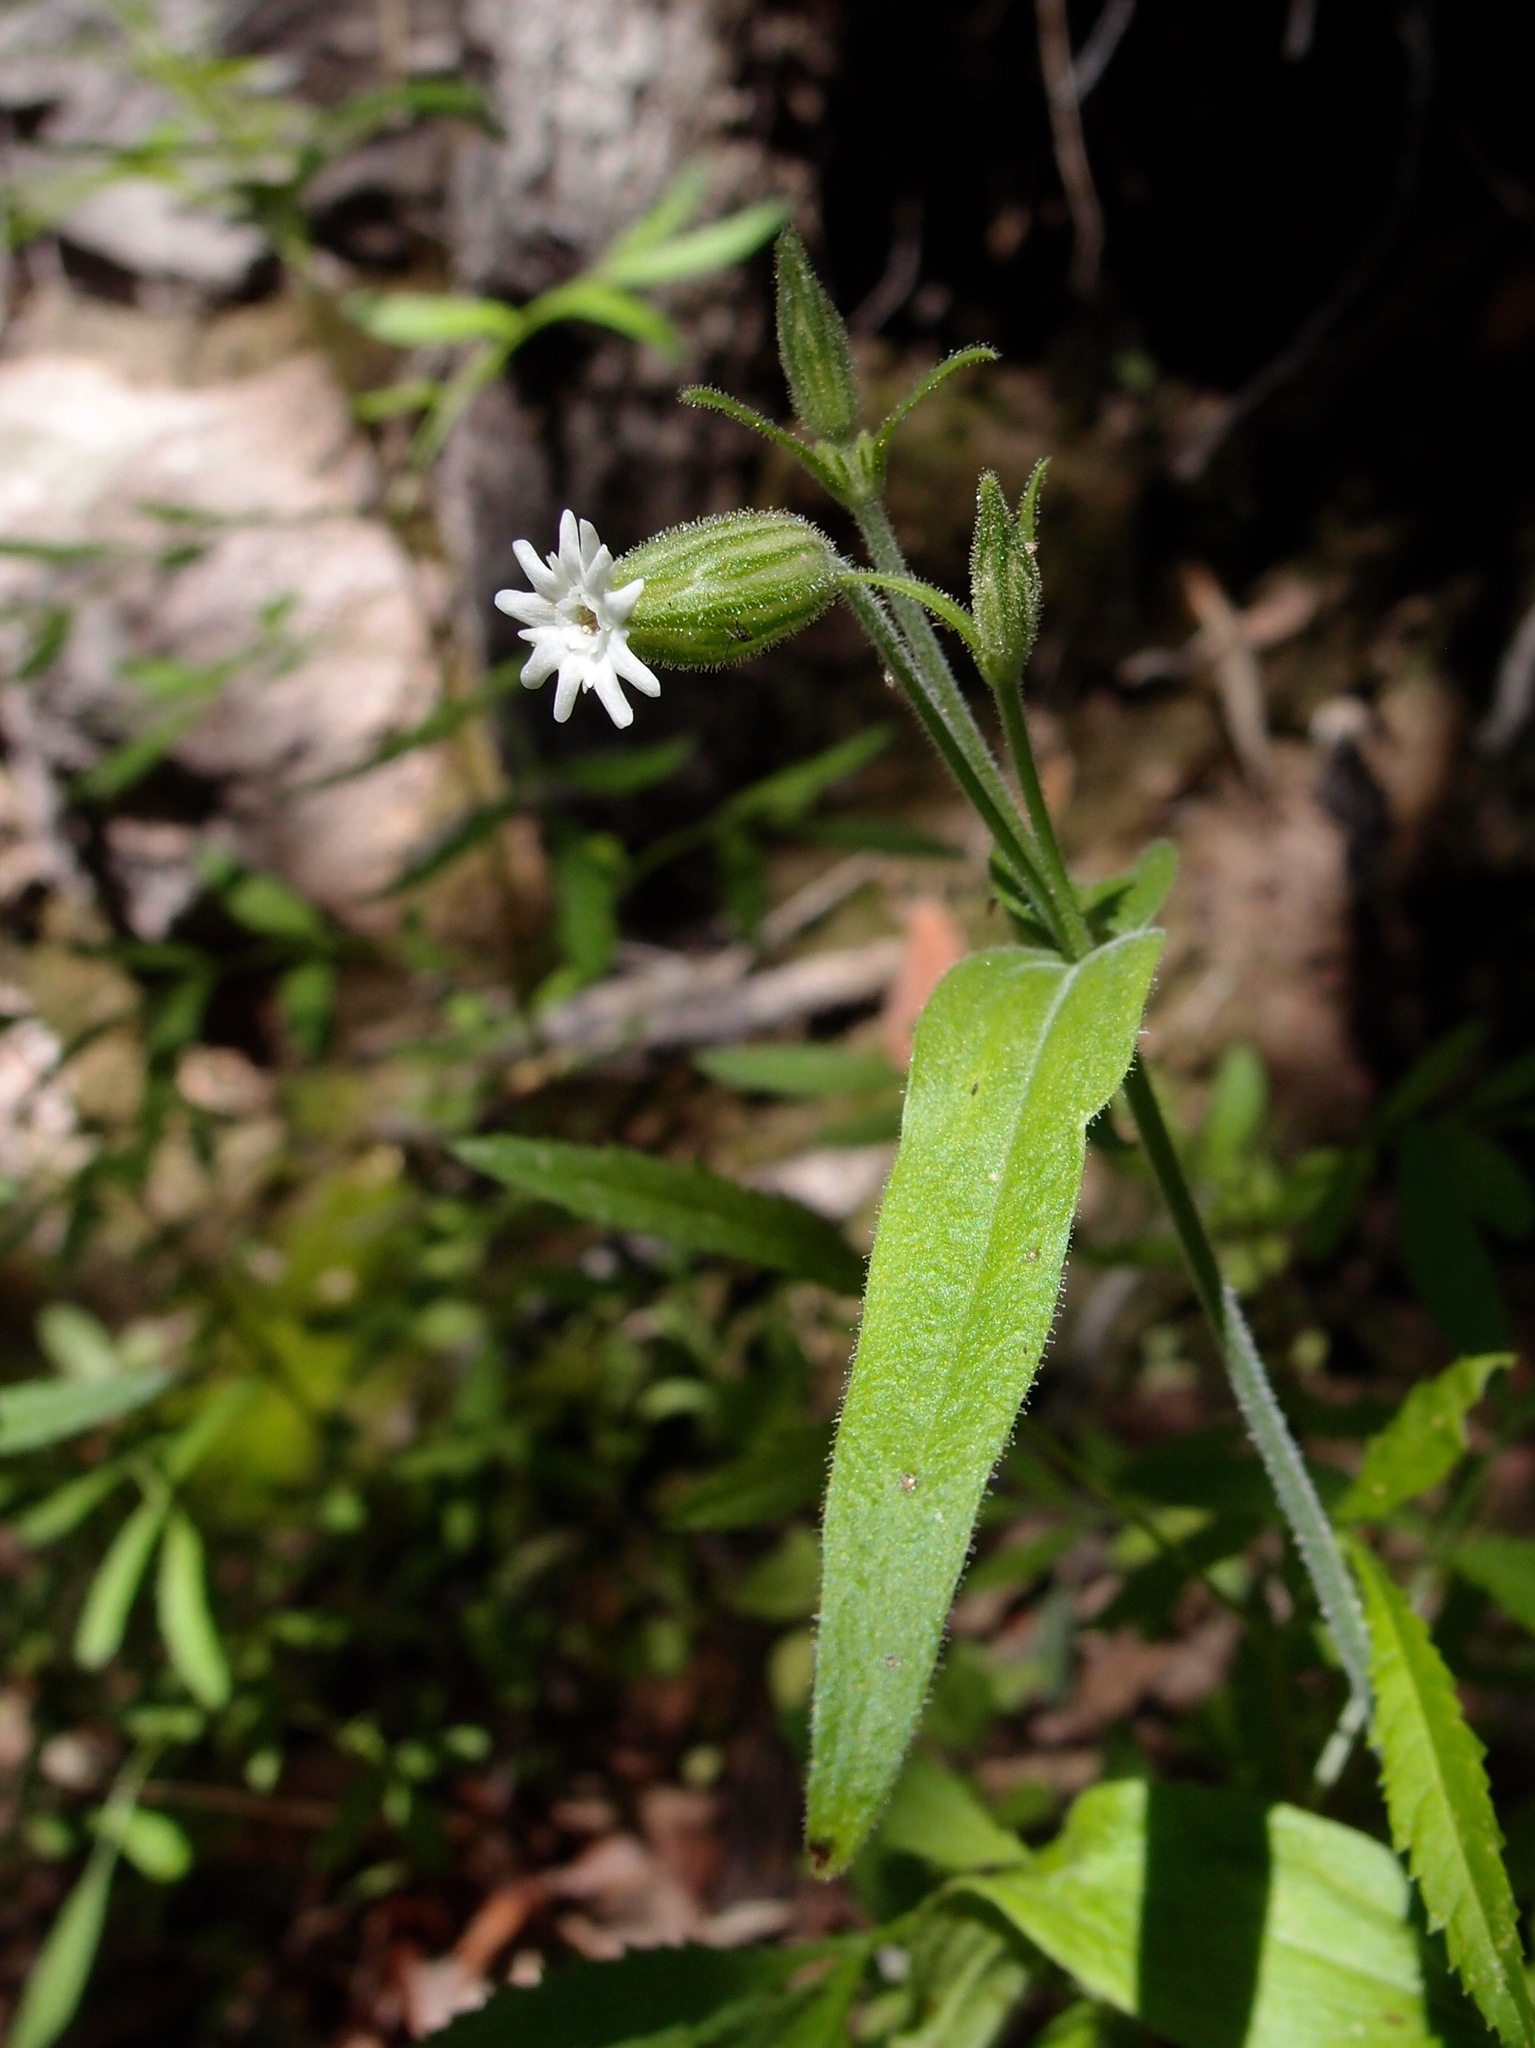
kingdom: Plantae
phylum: Tracheophyta
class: Magnoliopsida
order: Caryophyllales
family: Caryophyllaceae
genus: Silene
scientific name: Silene thurberi
